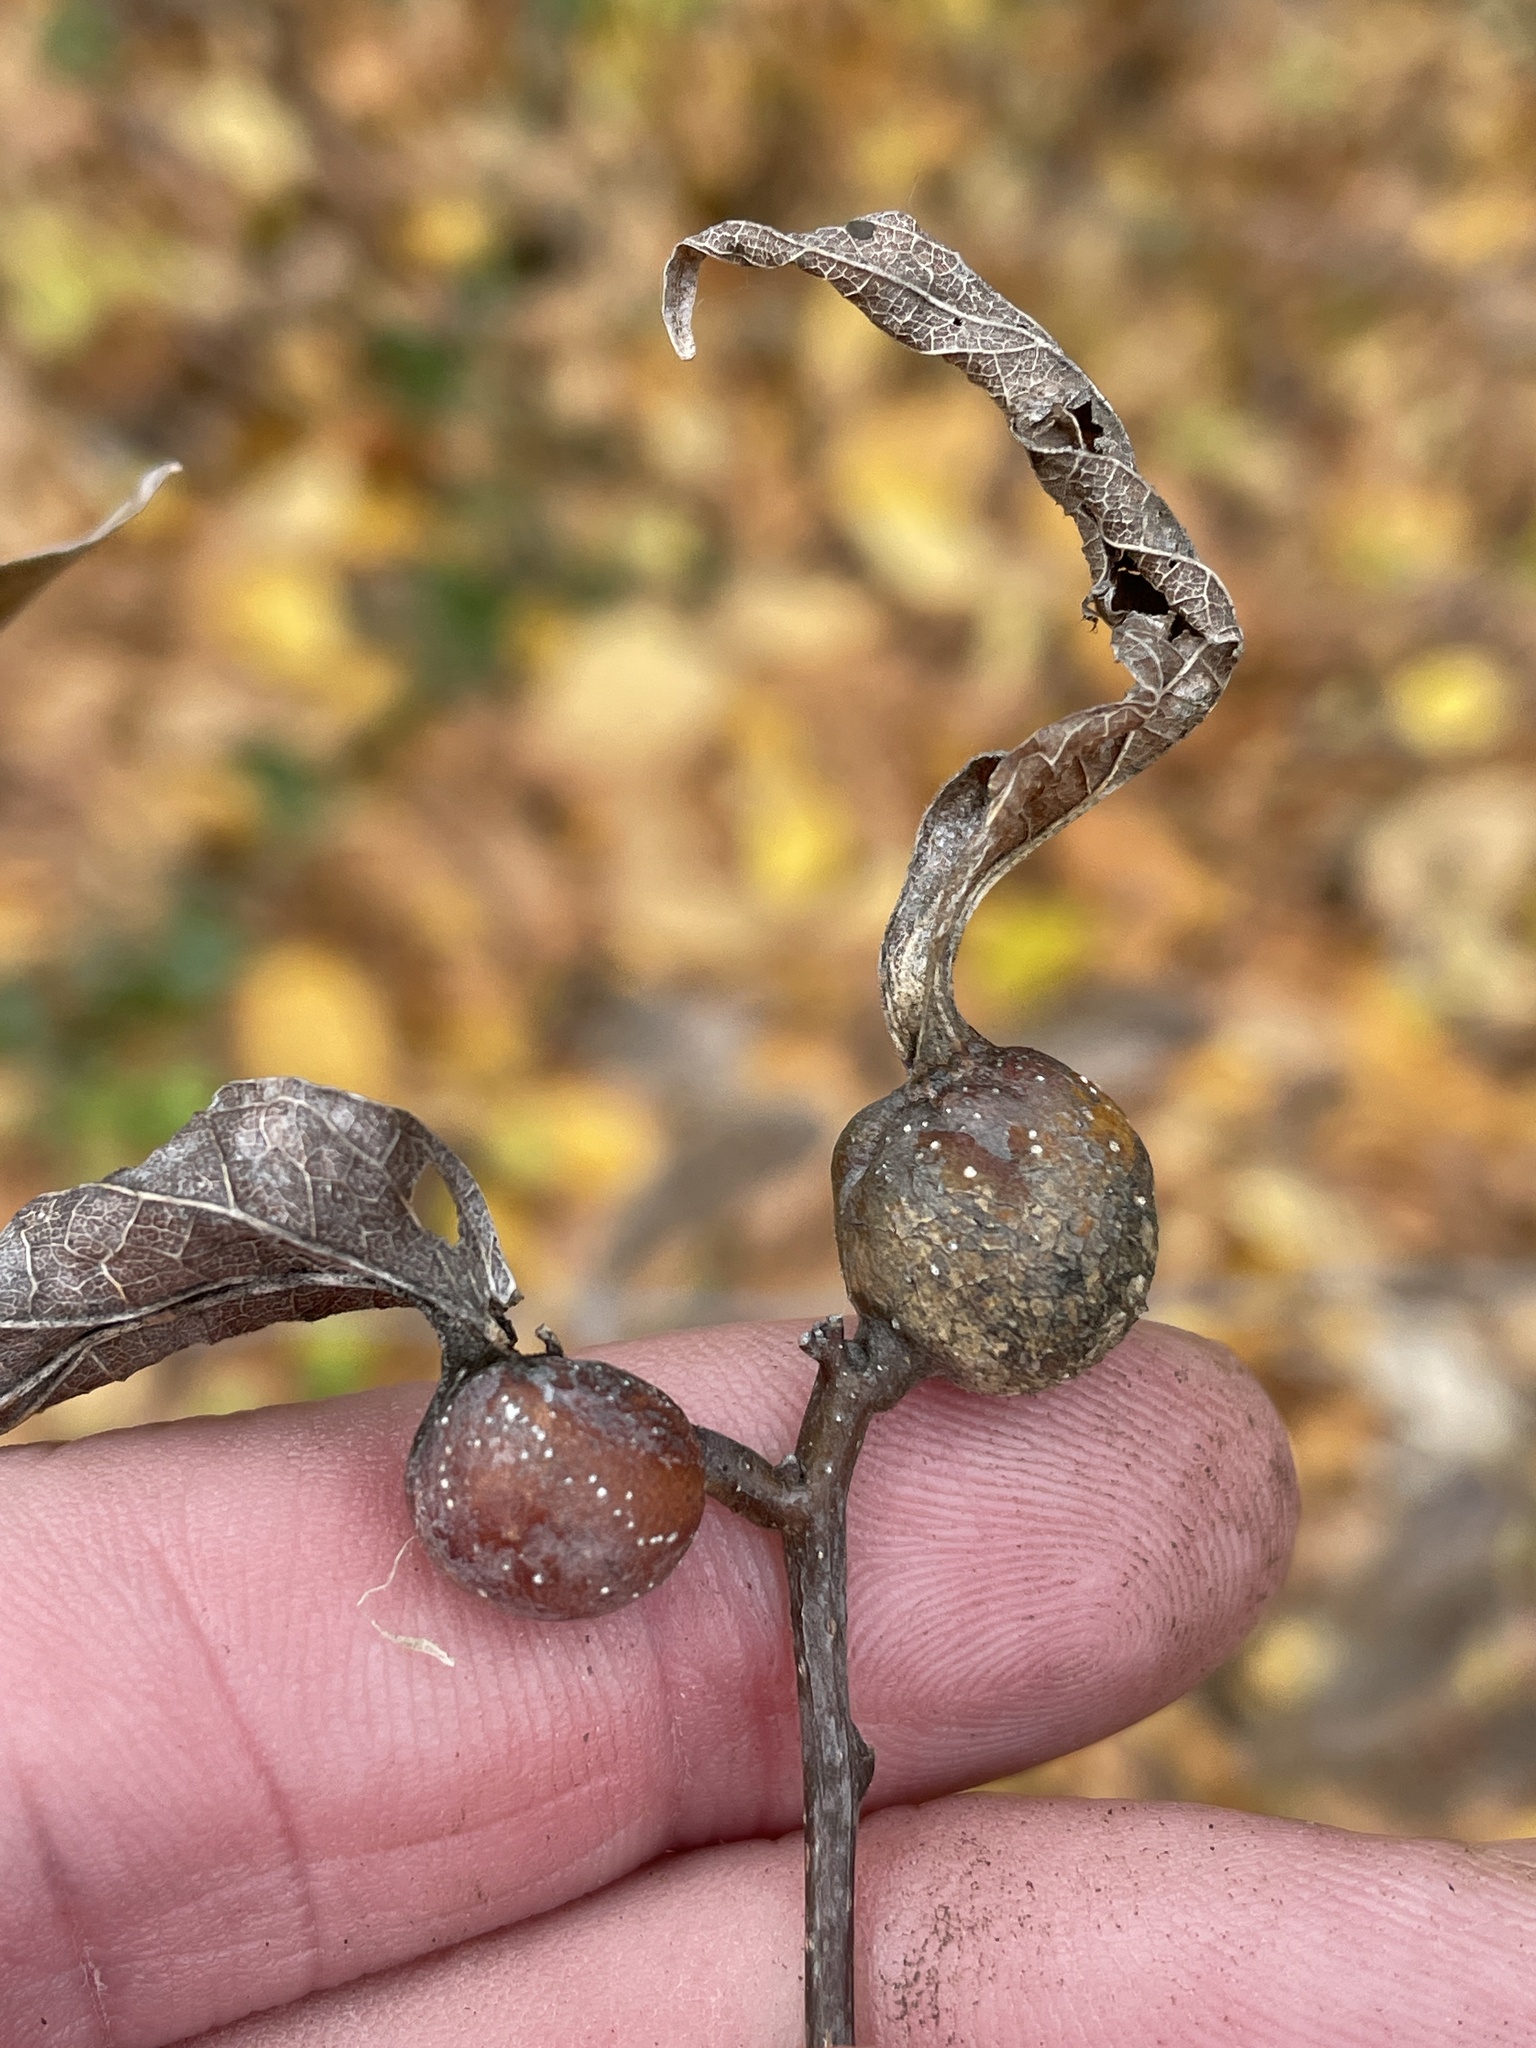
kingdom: Animalia
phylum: Arthropoda
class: Insecta
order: Hemiptera
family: Aphalaridae
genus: Pachypsylla
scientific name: Pachypsylla venusta
